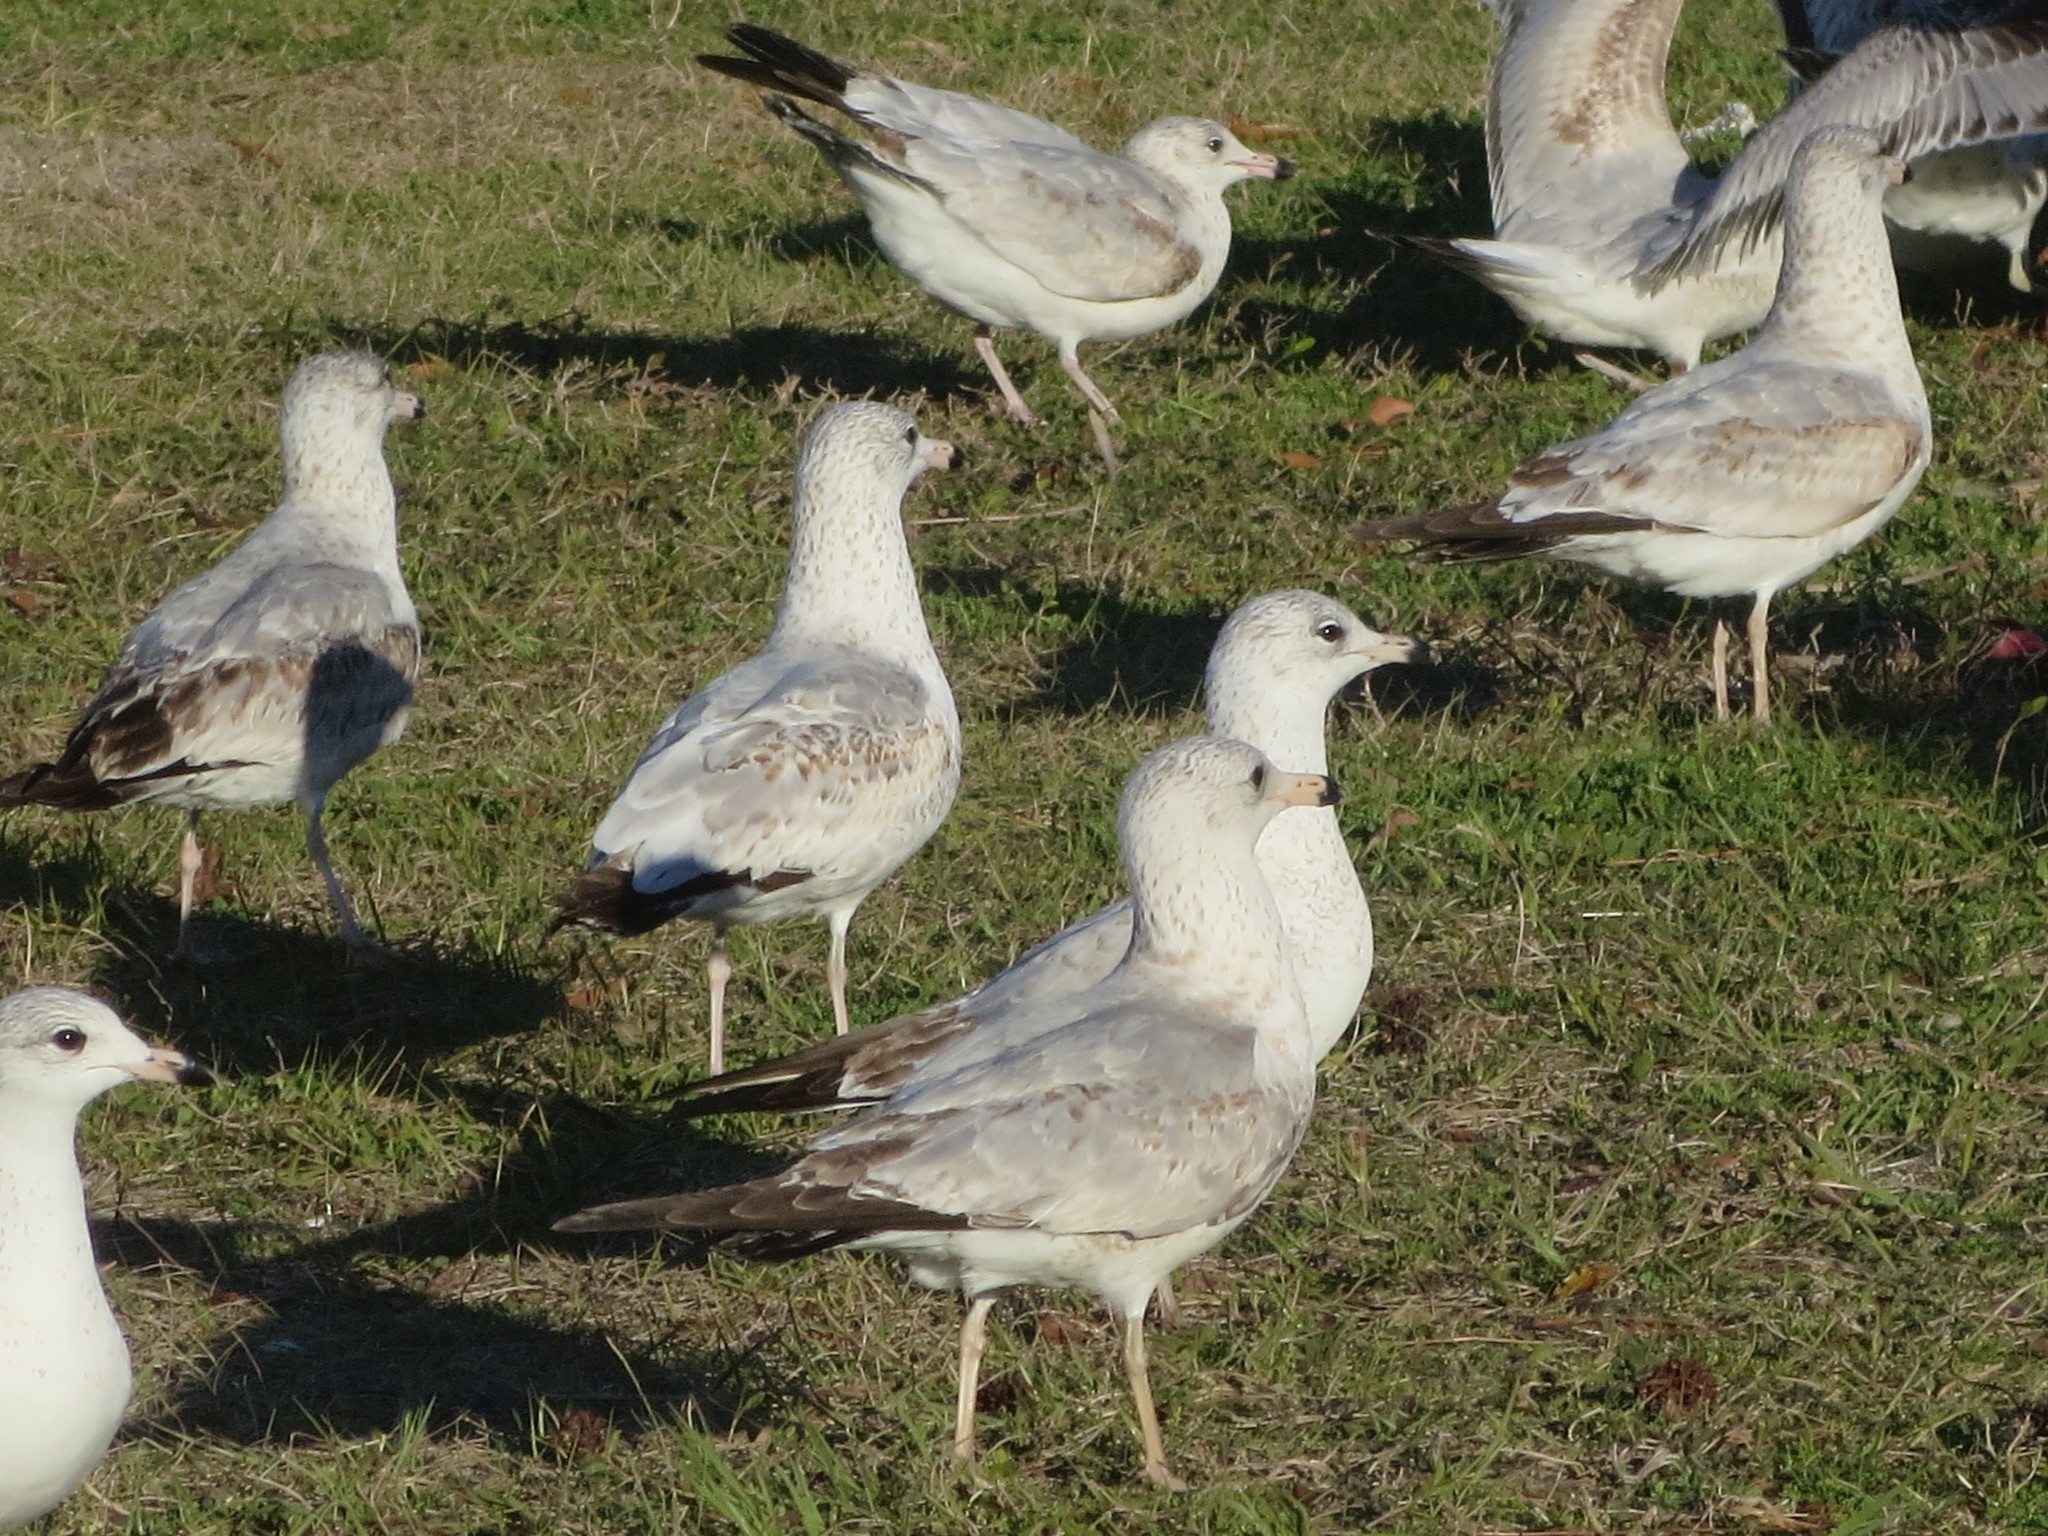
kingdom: Animalia
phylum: Chordata
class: Aves
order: Charadriiformes
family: Laridae
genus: Larus
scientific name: Larus delawarensis
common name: Ring-billed gull
